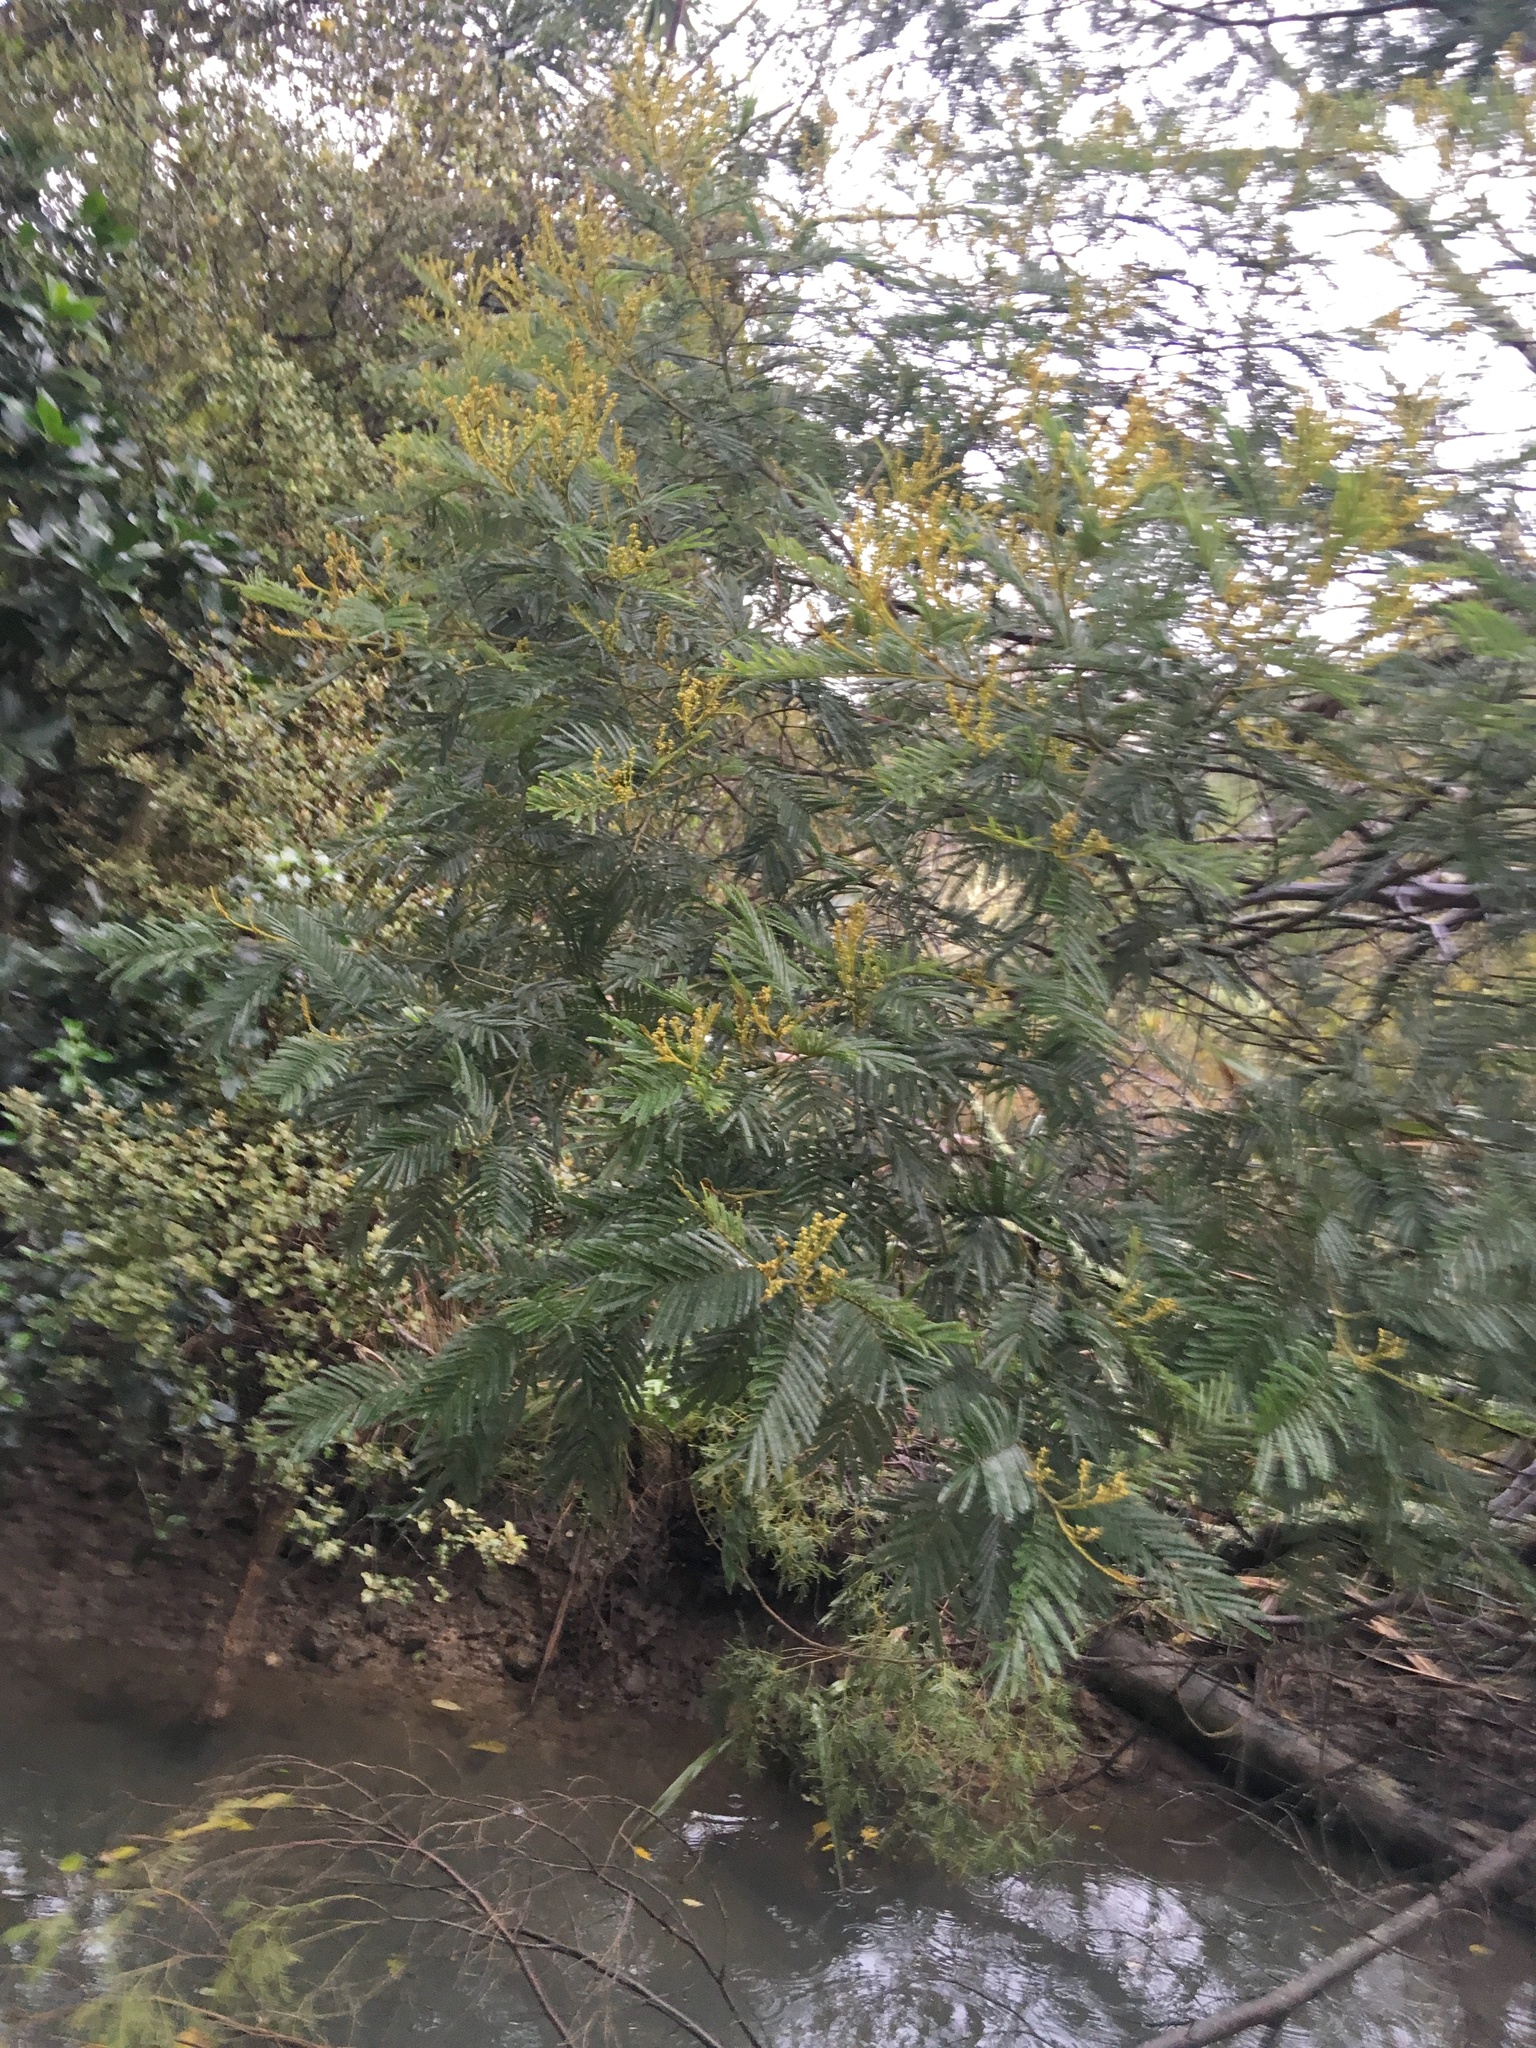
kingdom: Plantae
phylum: Tracheophyta
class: Magnoliopsida
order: Fabales
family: Fabaceae
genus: Acacia
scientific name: Acacia mearnsii
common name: Black wattle
